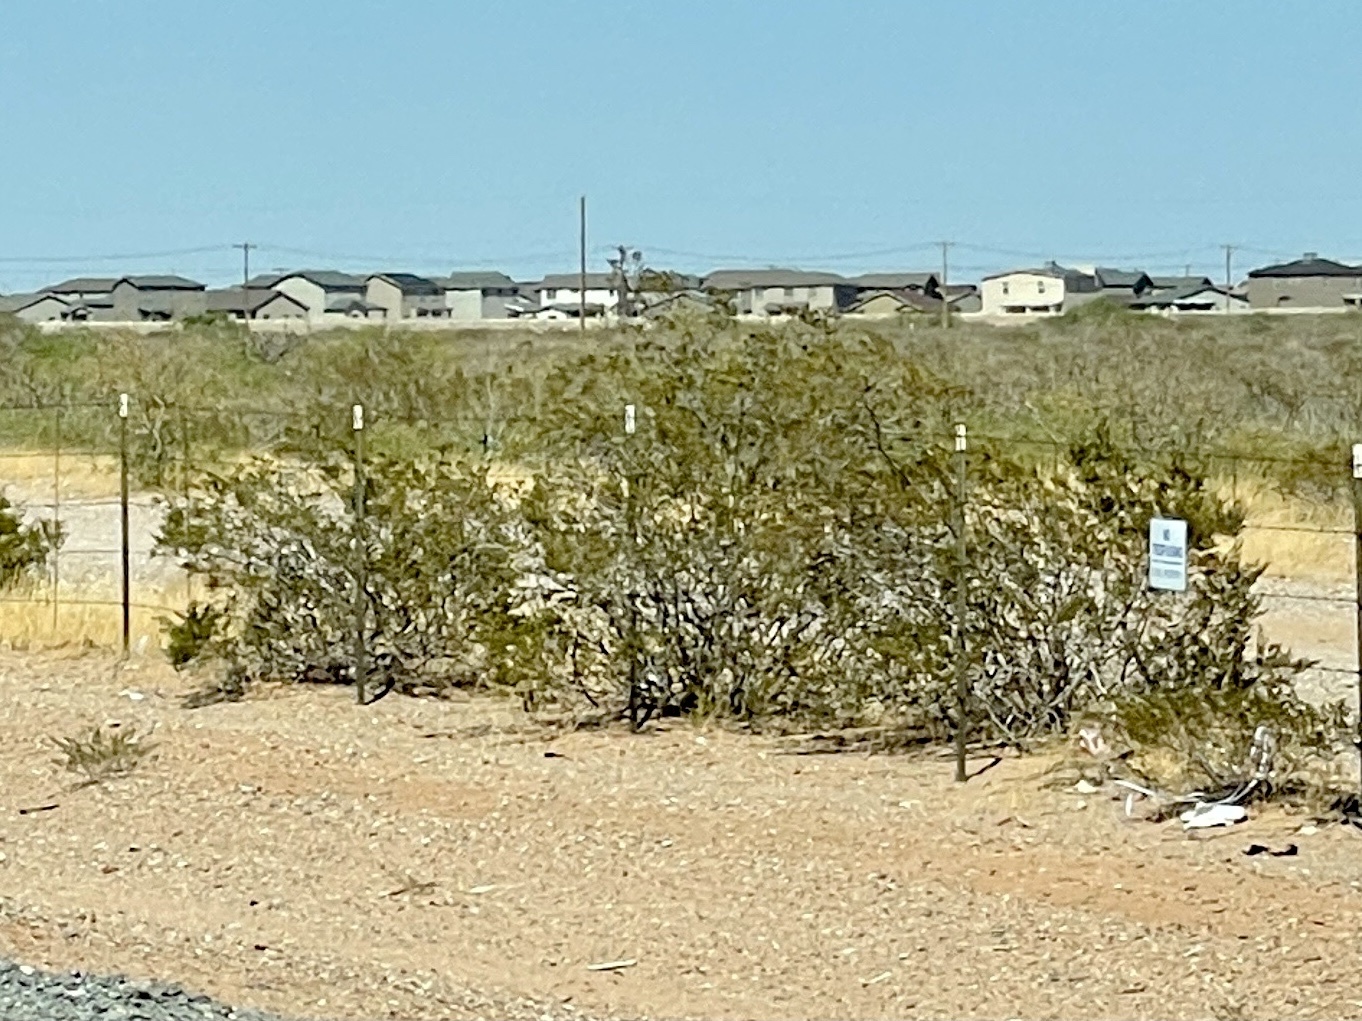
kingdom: Plantae
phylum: Tracheophyta
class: Magnoliopsida
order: Zygophyllales
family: Zygophyllaceae
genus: Larrea
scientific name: Larrea tridentata
